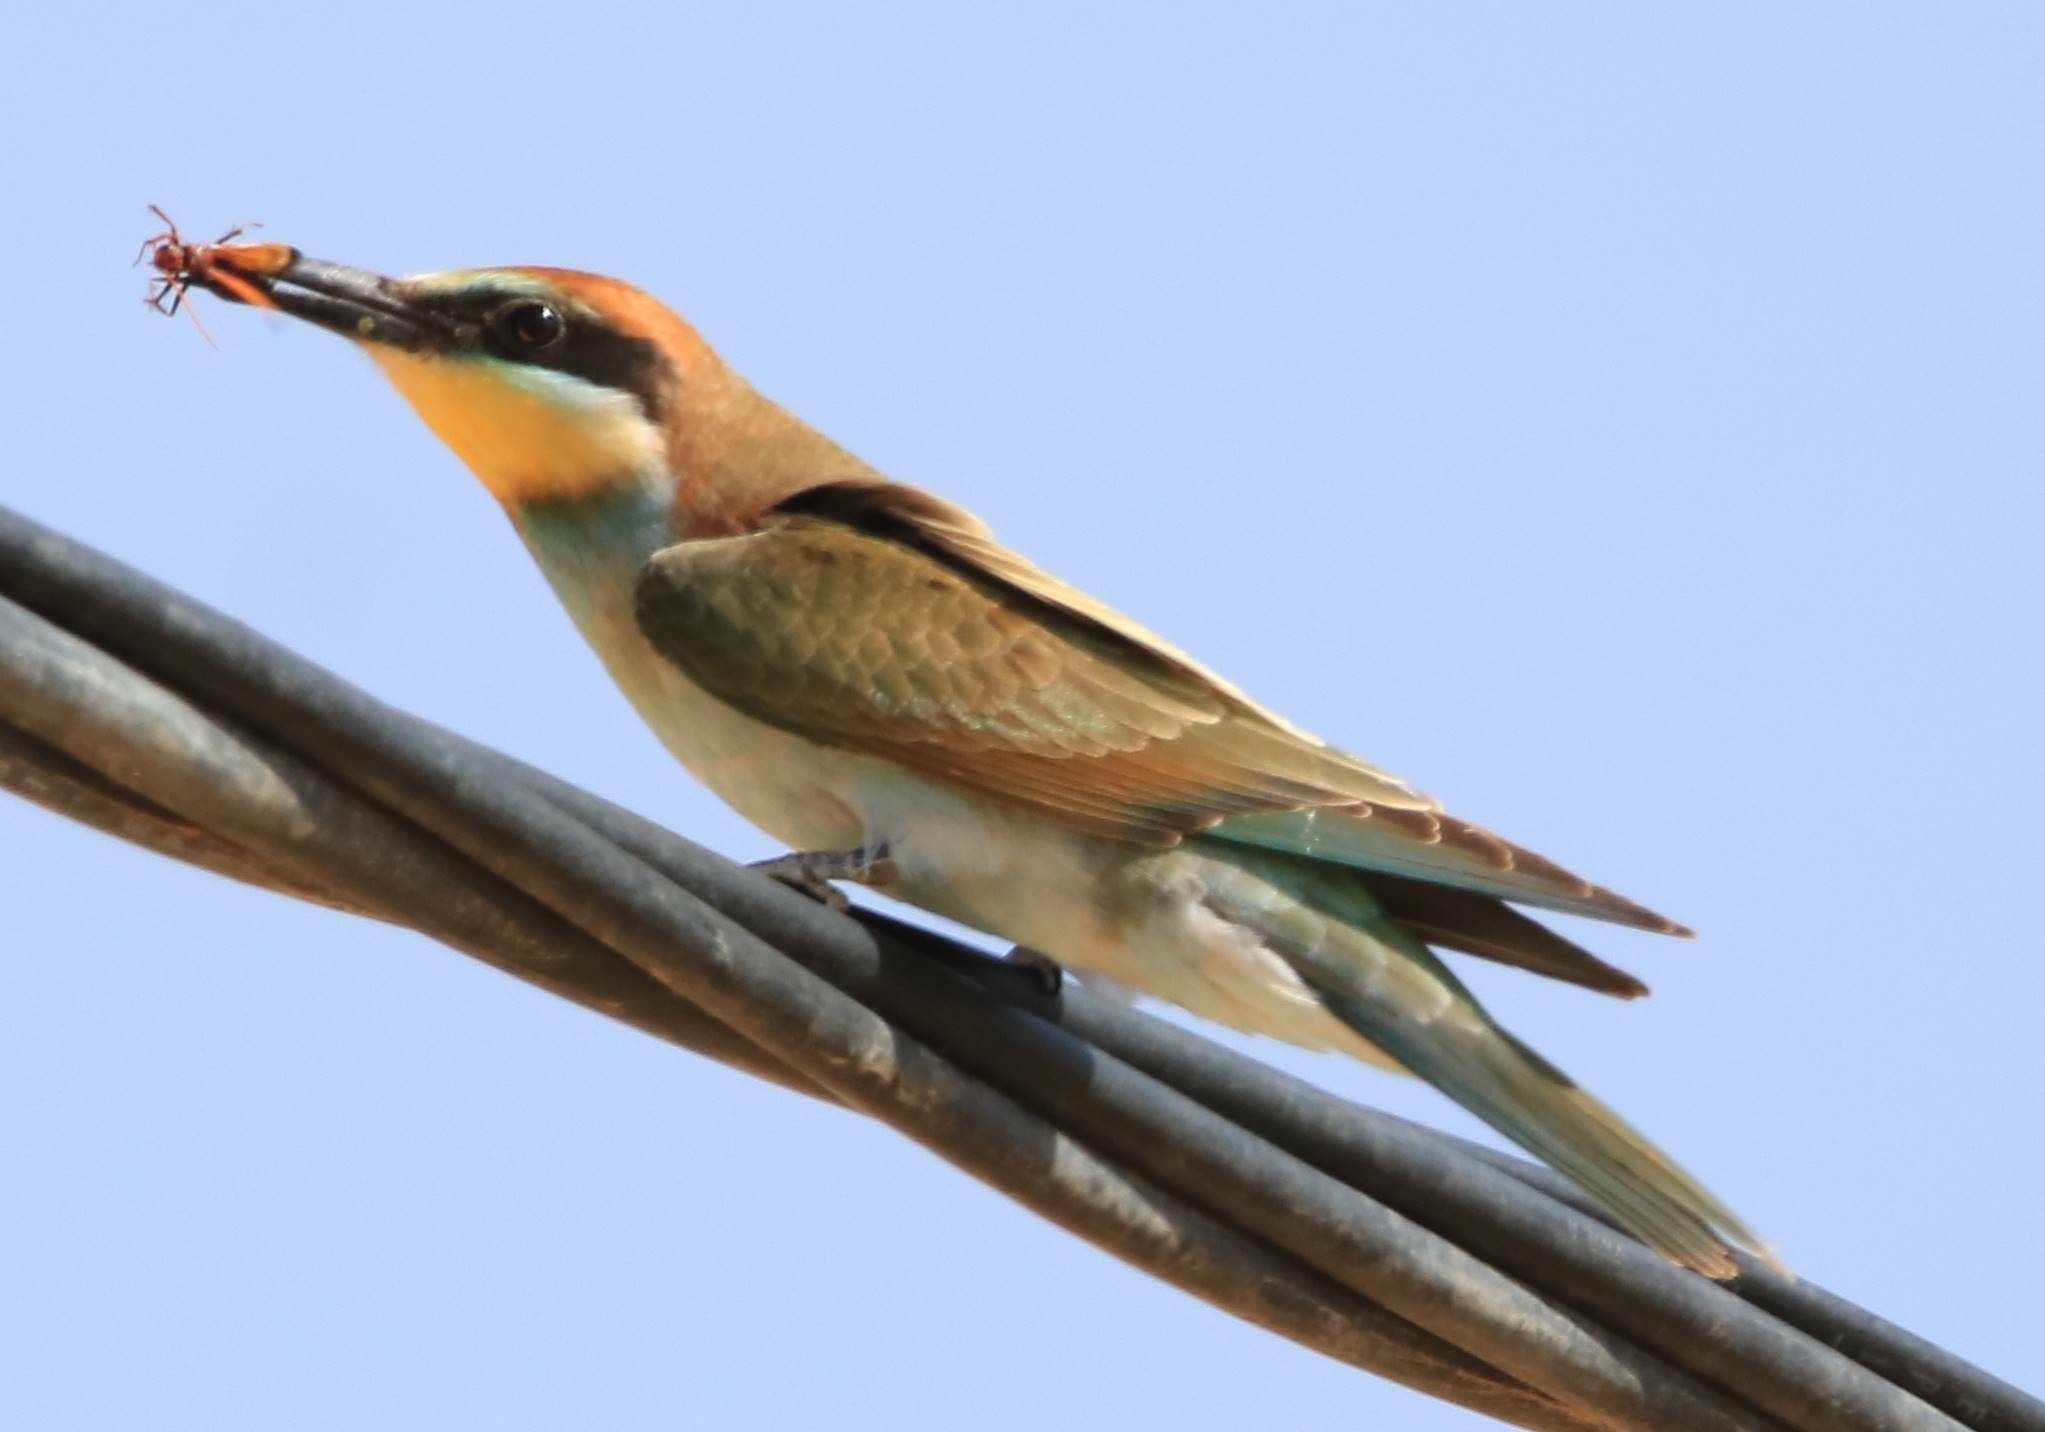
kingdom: Animalia
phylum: Chordata
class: Aves
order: Coraciiformes
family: Meropidae
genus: Merops
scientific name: Merops apiaster
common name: European bee-eater
